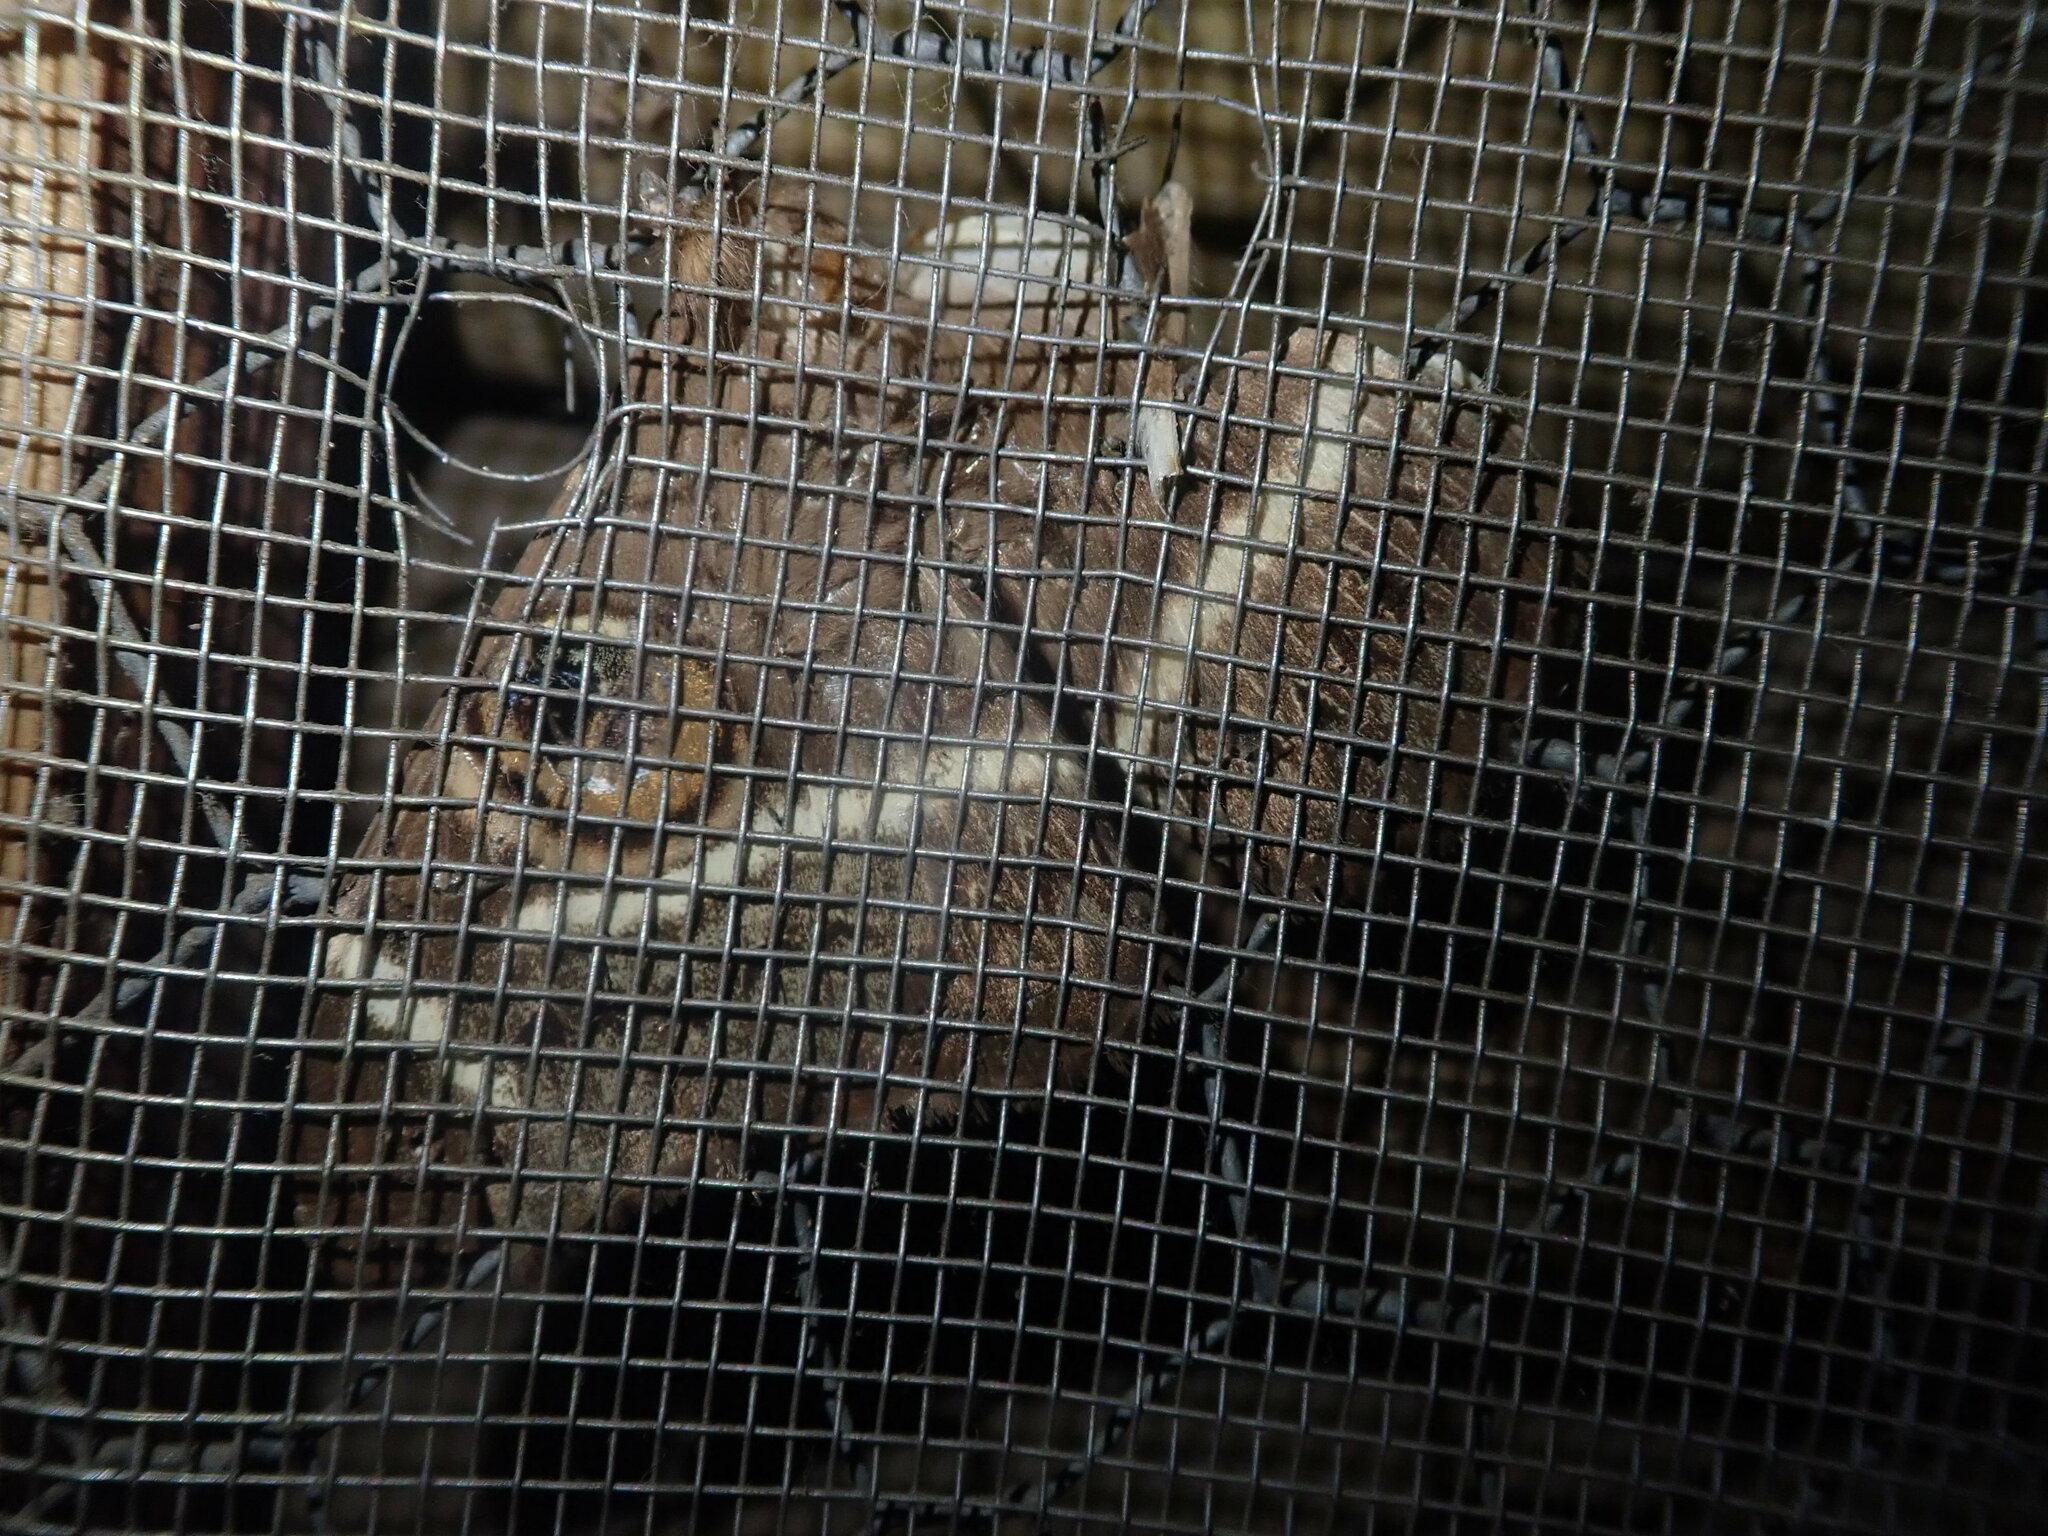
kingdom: Animalia
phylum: Arthropoda
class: Insecta
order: Lepidoptera
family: Erebidae
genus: Cyligramma
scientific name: Cyligramma latona
